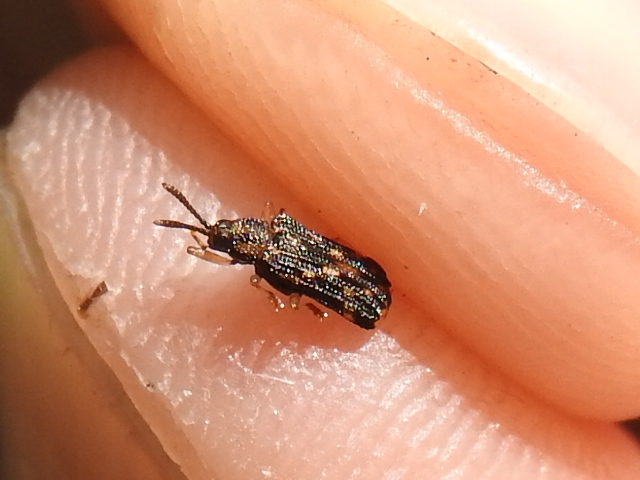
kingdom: Animalia
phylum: Arthropoda
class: Insecta
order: Coleoptera
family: Chrysomelidae
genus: Sumitrosis
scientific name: Sumitrosis inaequalis
